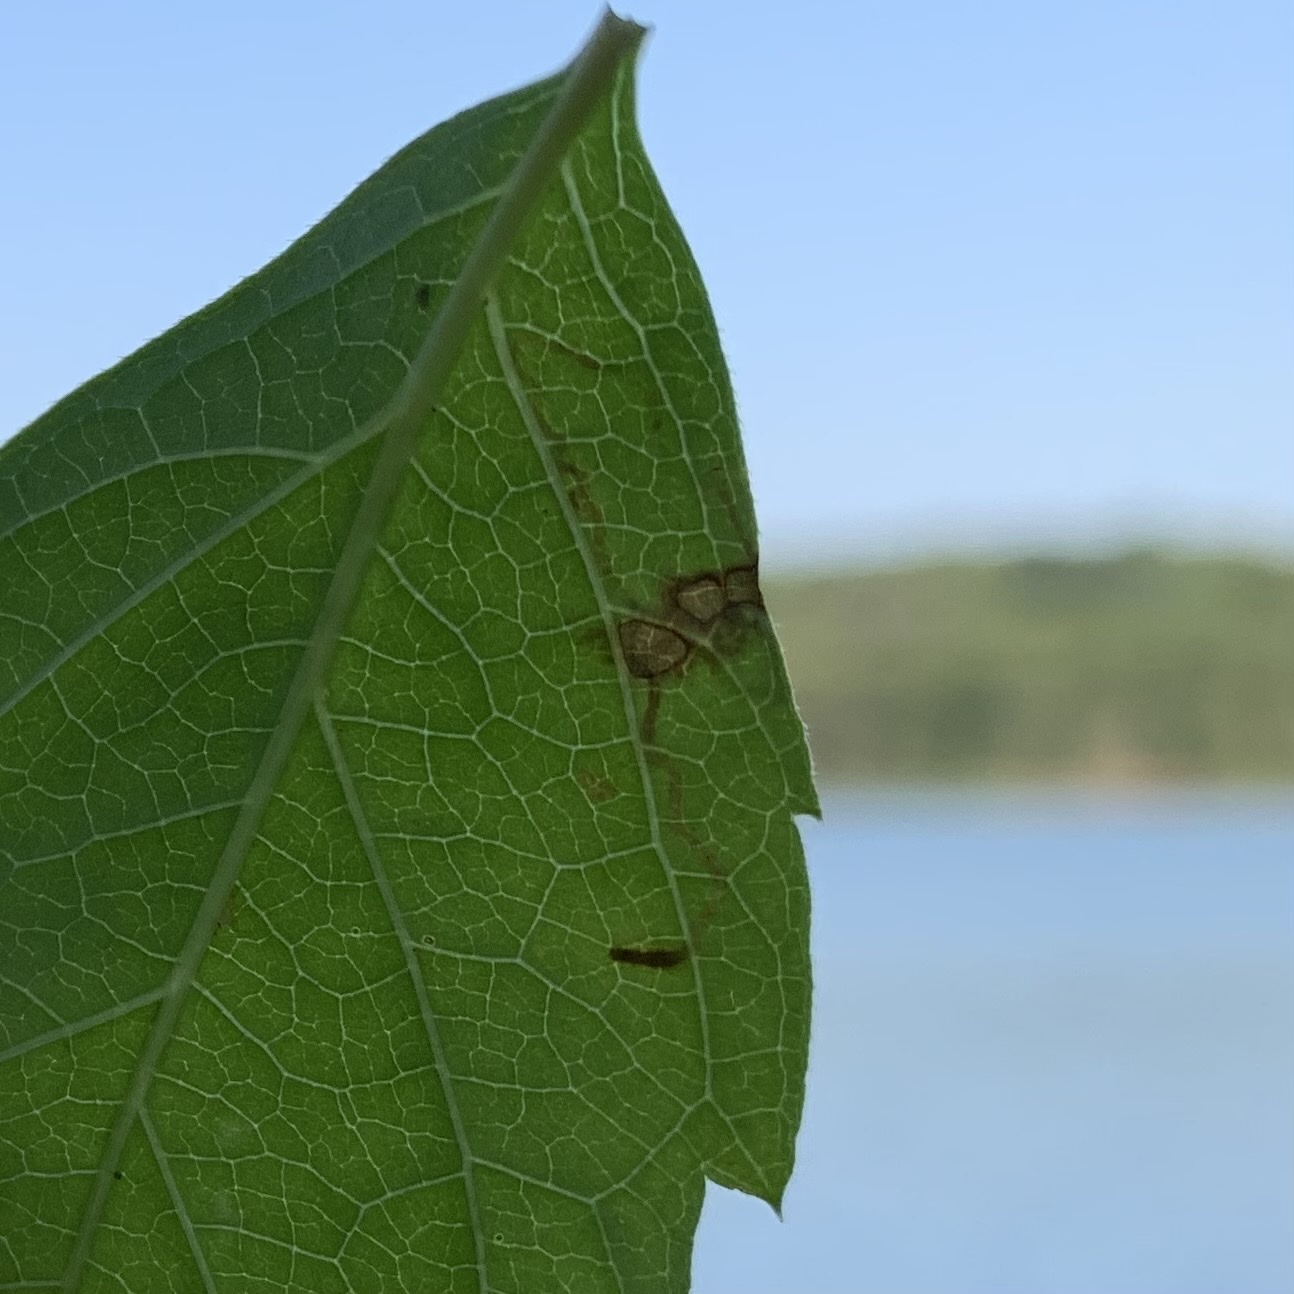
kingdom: Animalia
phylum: Arthropoda
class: Insecta
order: Lepidoptera
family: Gracillariidae
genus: Phyllocnistis
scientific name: Phyllocnistis vitifoliella
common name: Grape leaf-miner moth
